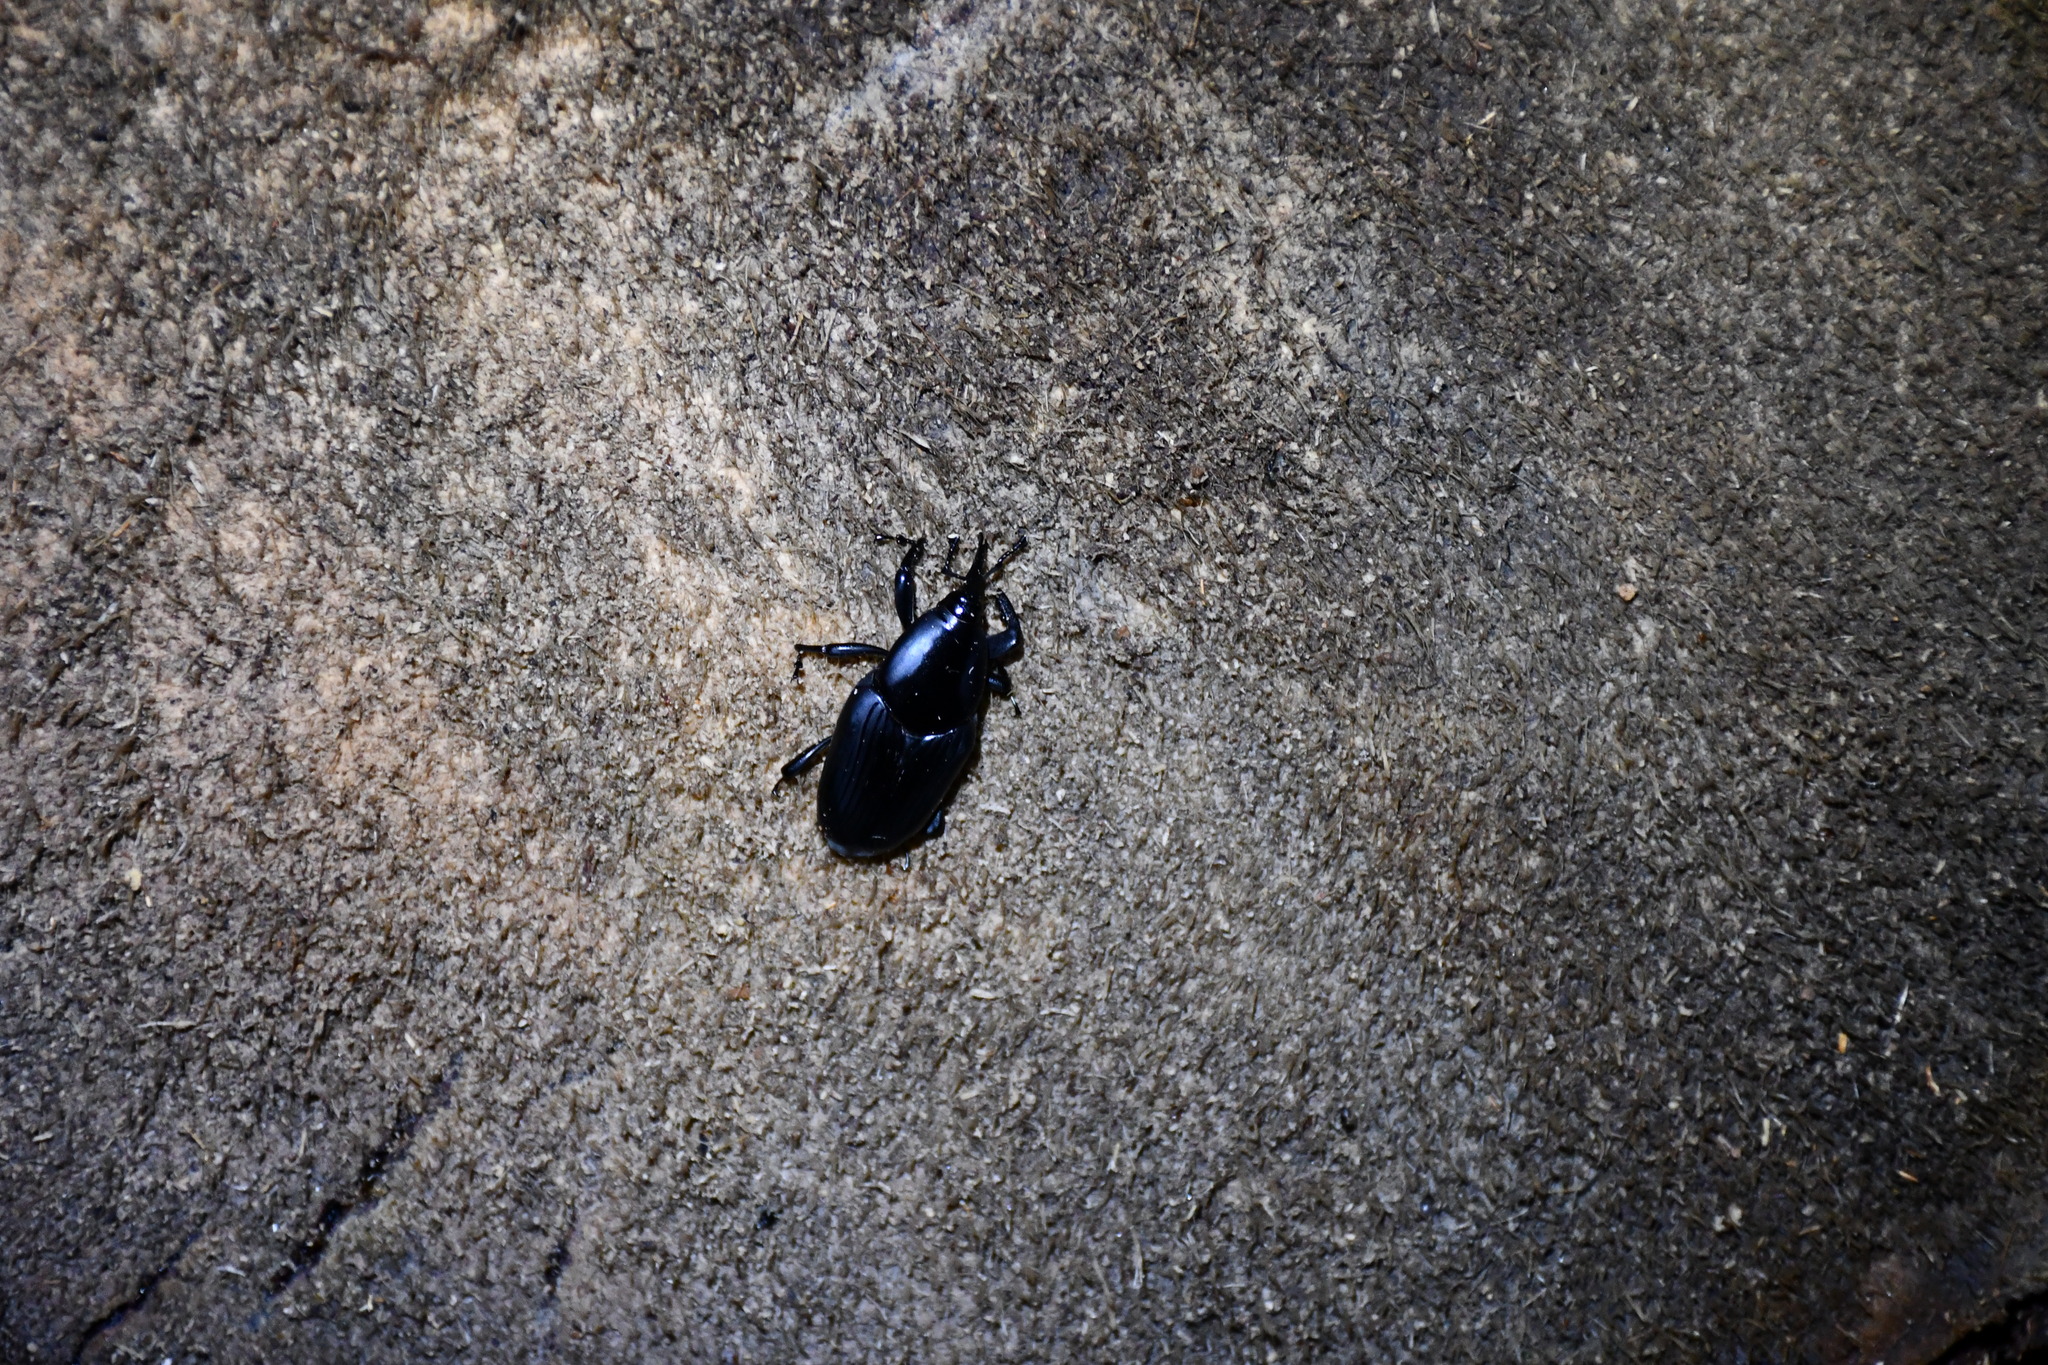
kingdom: Animalia
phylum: Arthropoda
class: Insecta
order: Coleoptera
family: Dryophthoridae
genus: Rhynchophorus
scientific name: Rhynchophorus palmarum
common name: Palm weevil
